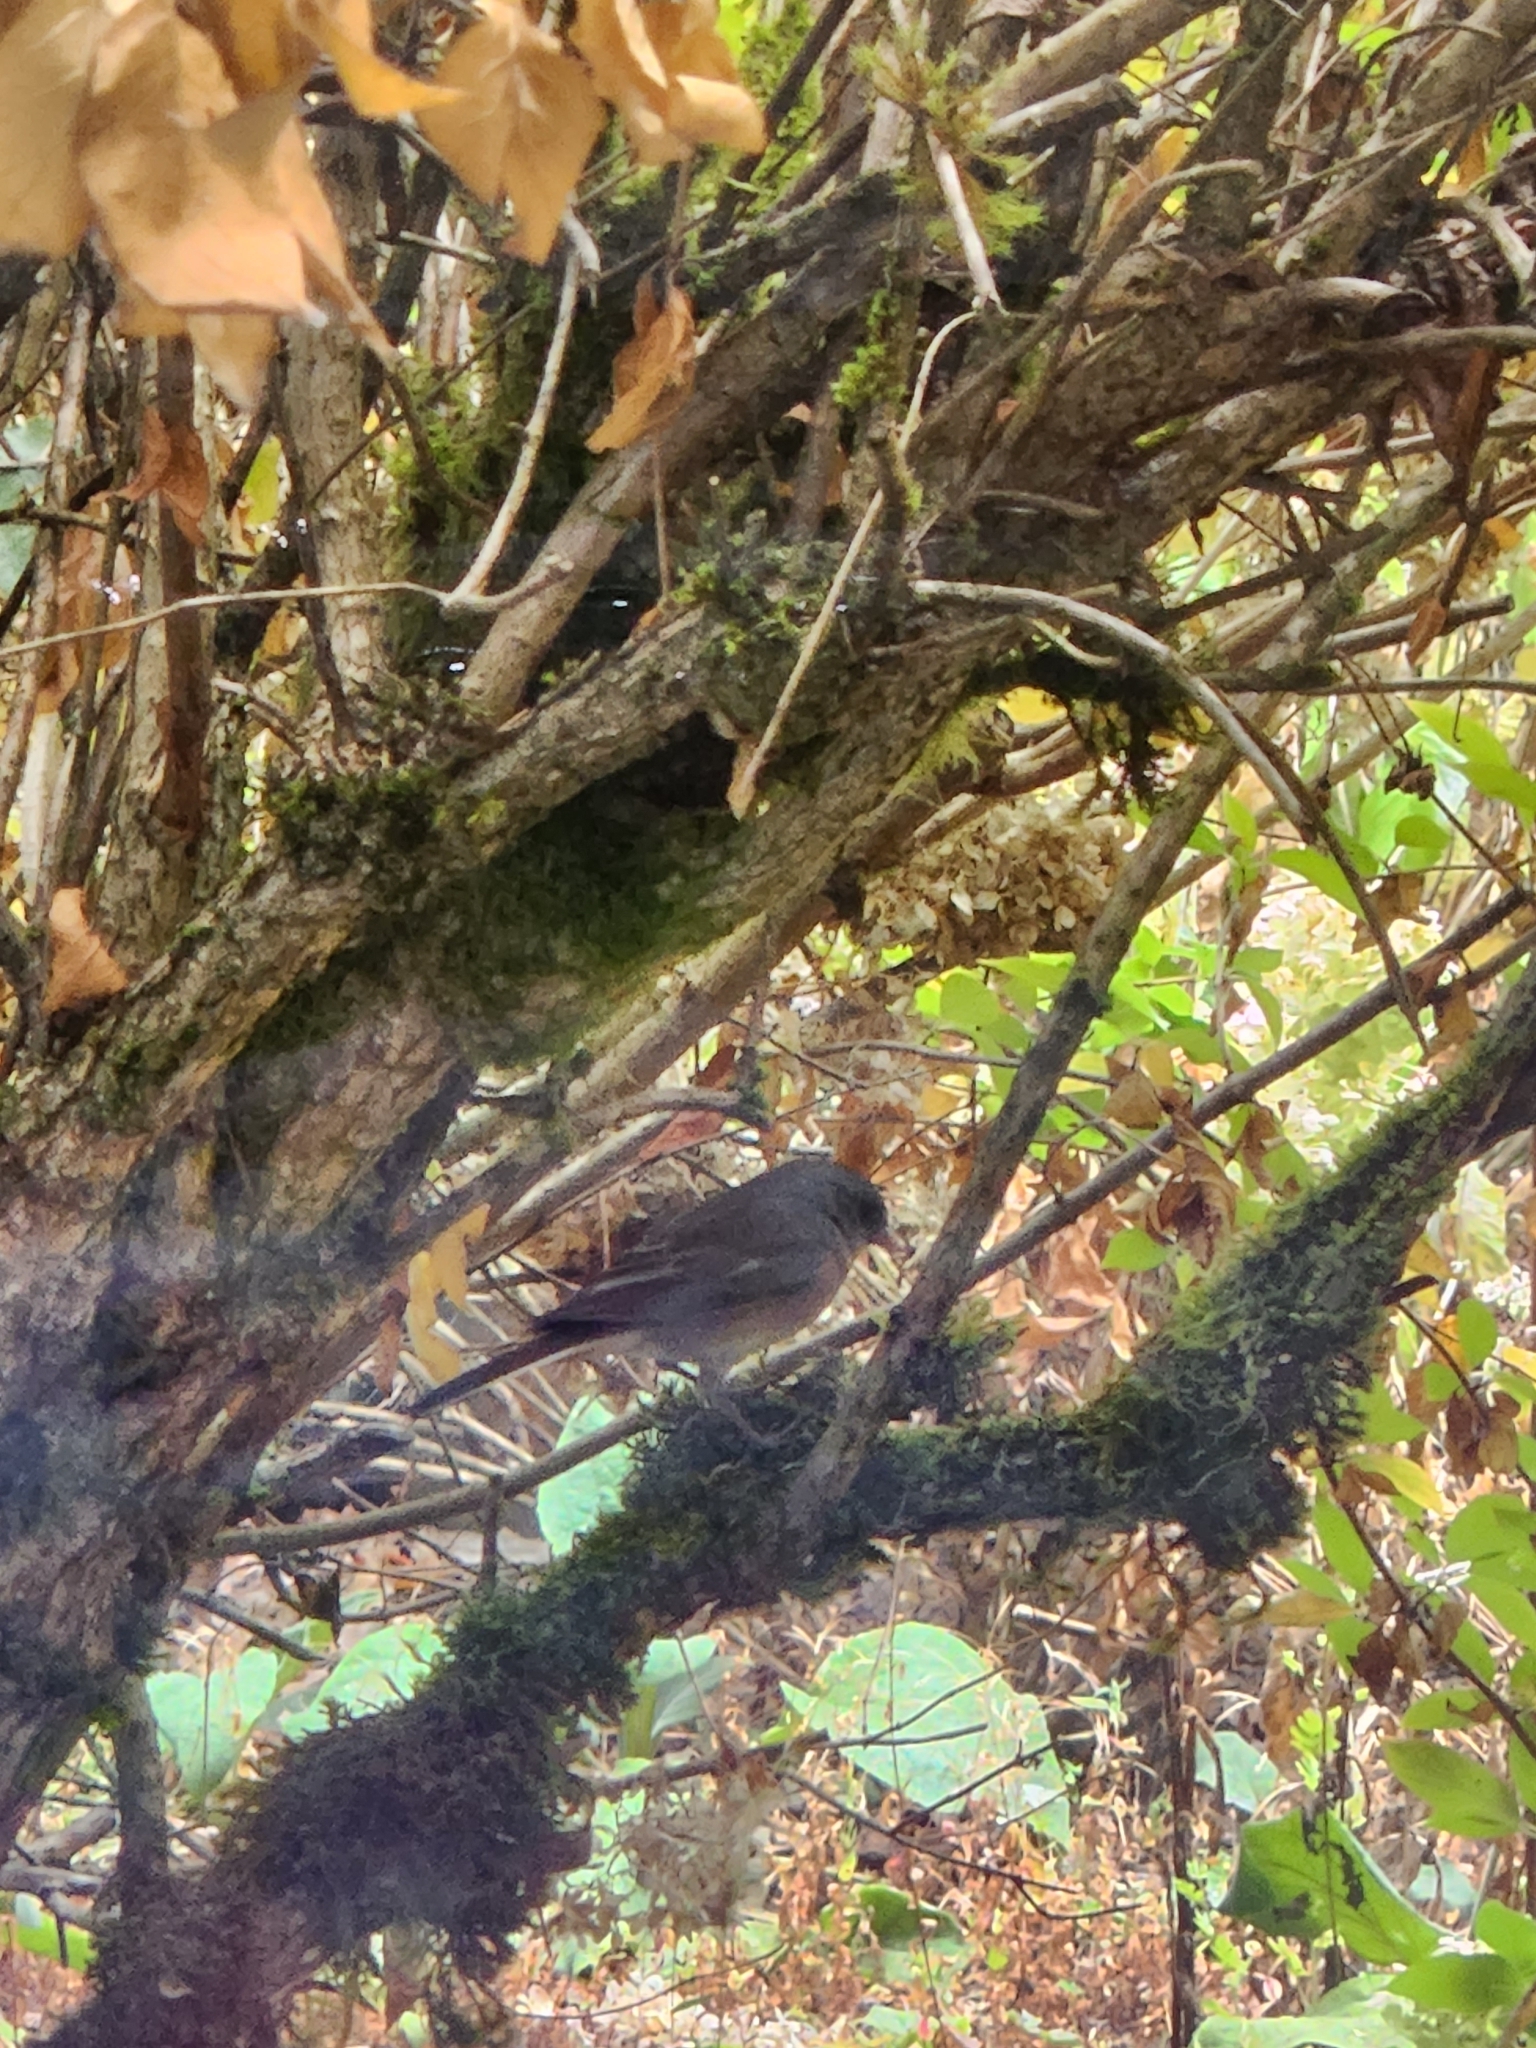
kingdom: Animalia
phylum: Chordata
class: Aves
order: Passeriformes
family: Passerellidae
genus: Junco
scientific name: Junco hyemalis
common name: Dark-eyed junco
